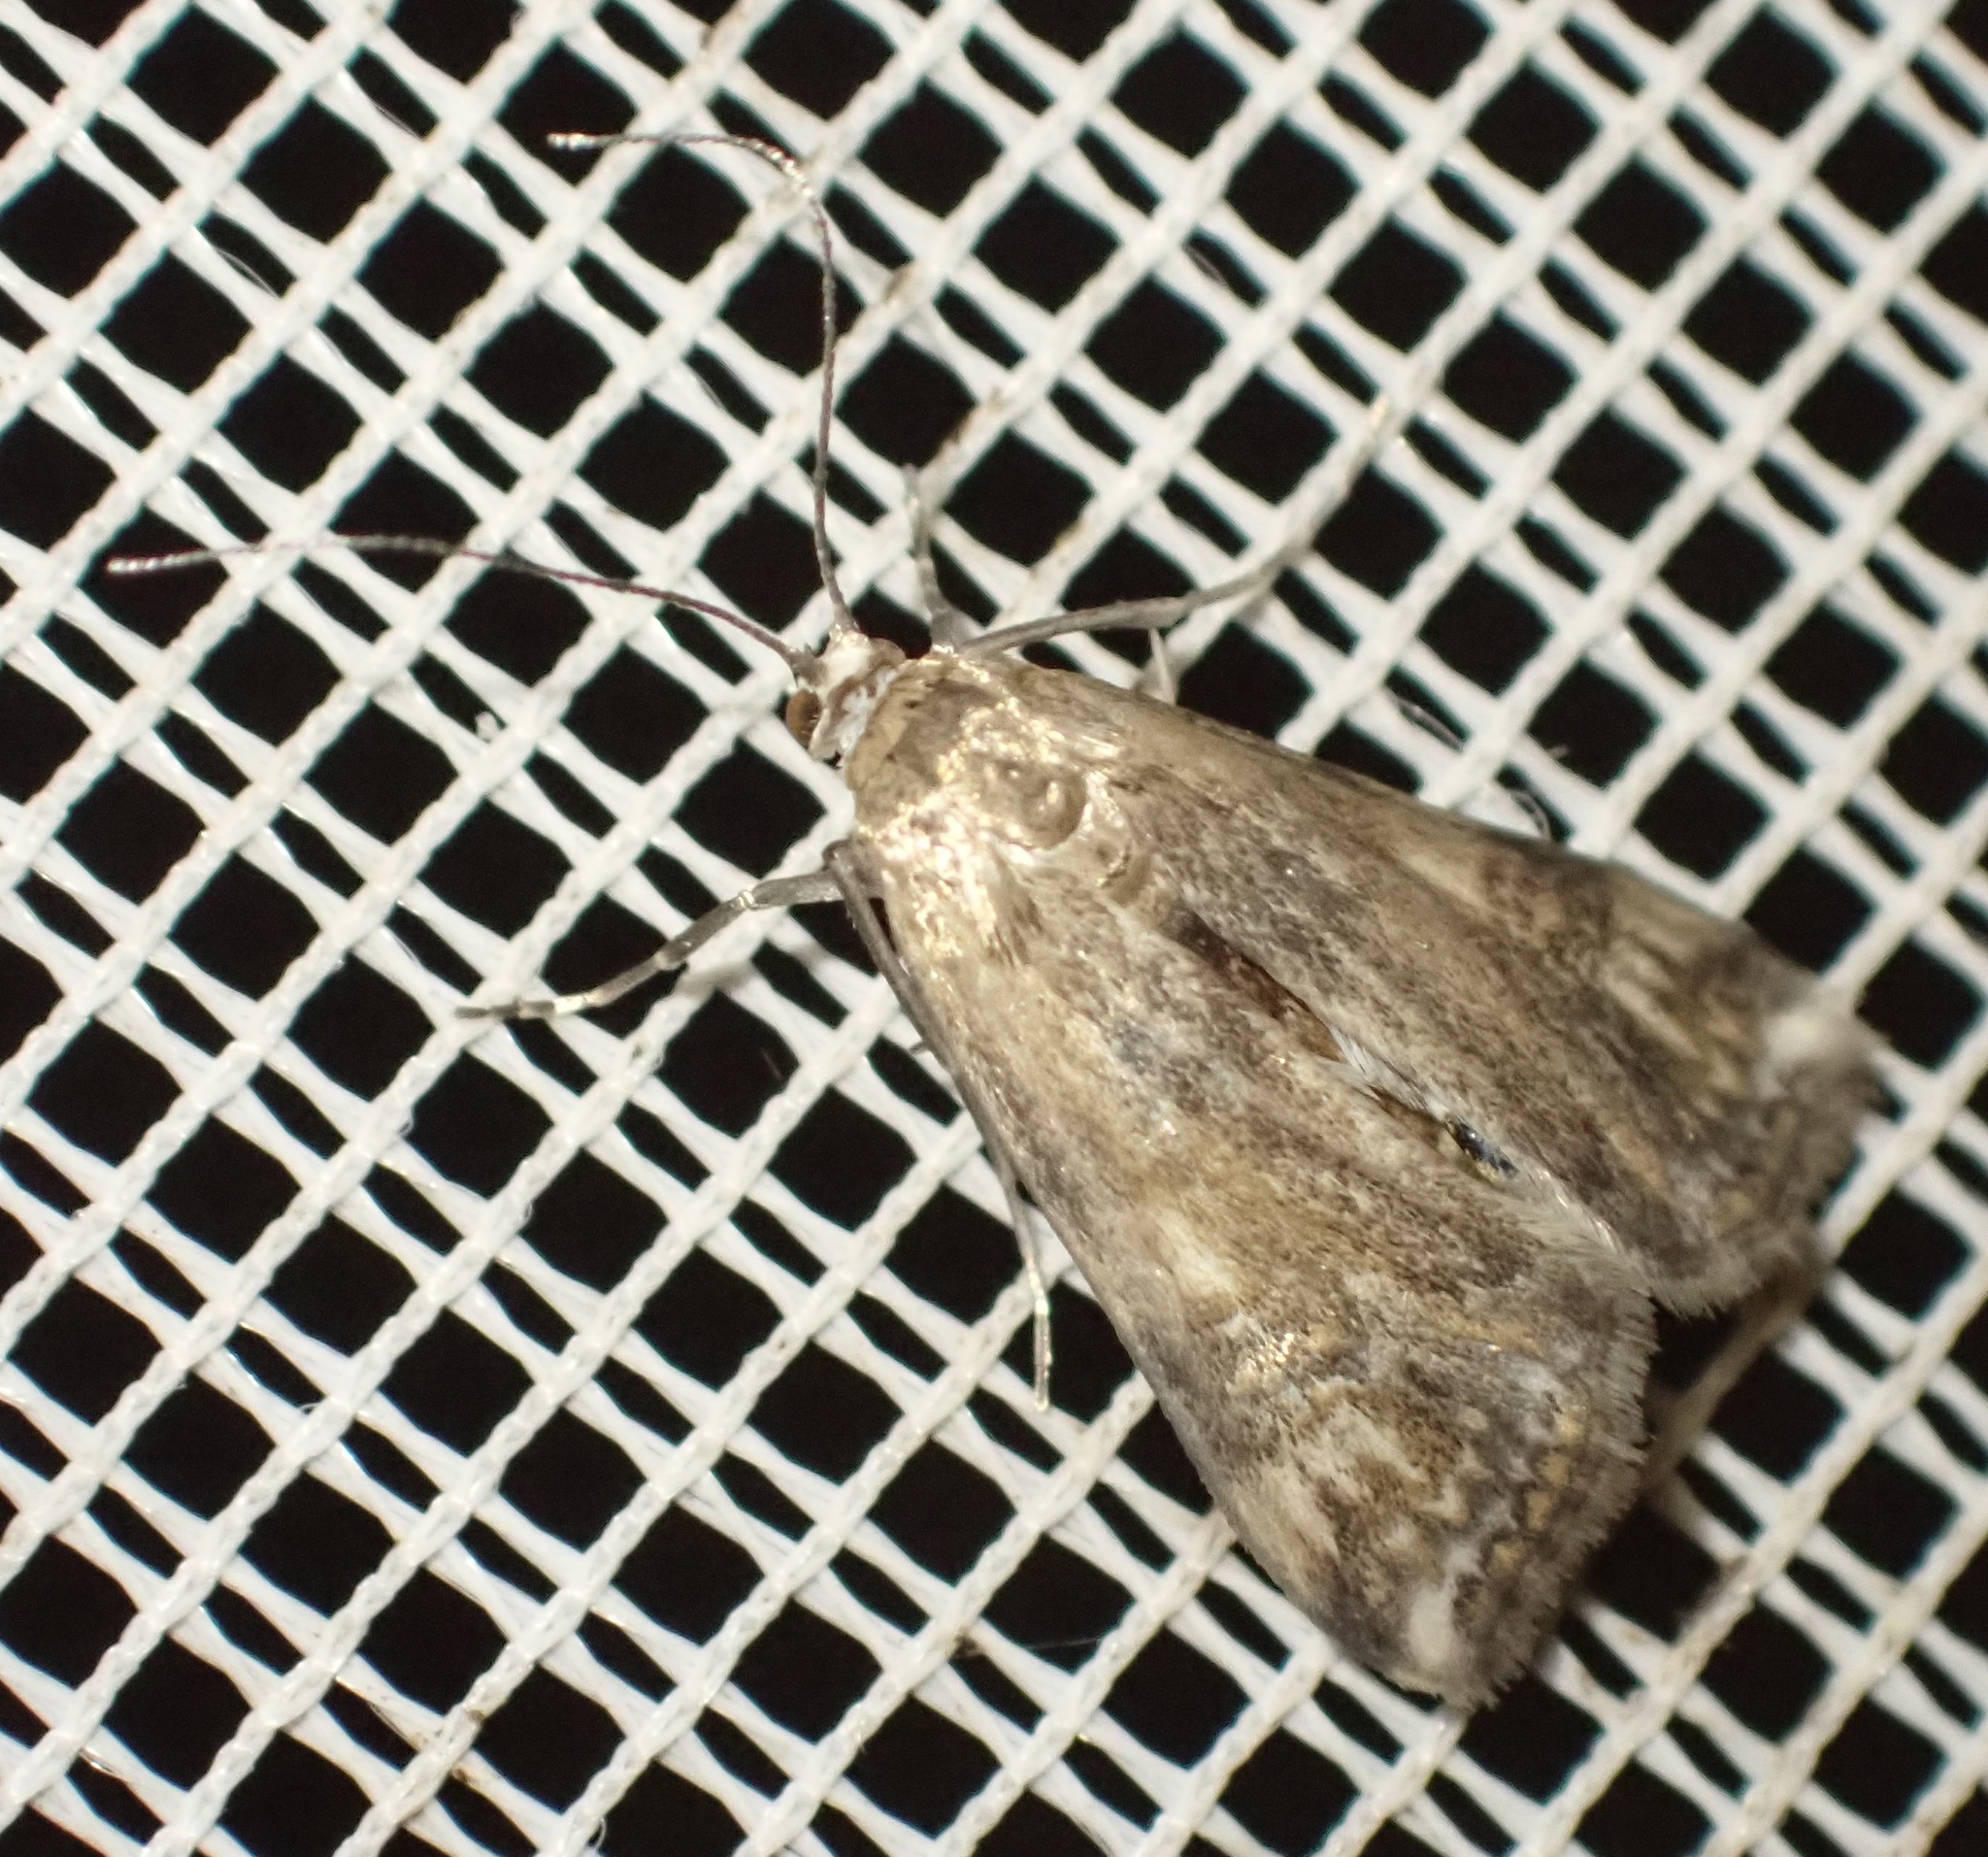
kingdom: Animalia
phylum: Arthropoda
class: Insecta
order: Lepidoptera
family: Crambidae
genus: Cataclysta
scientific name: Cataclysta lemnata
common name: Small china-mark
